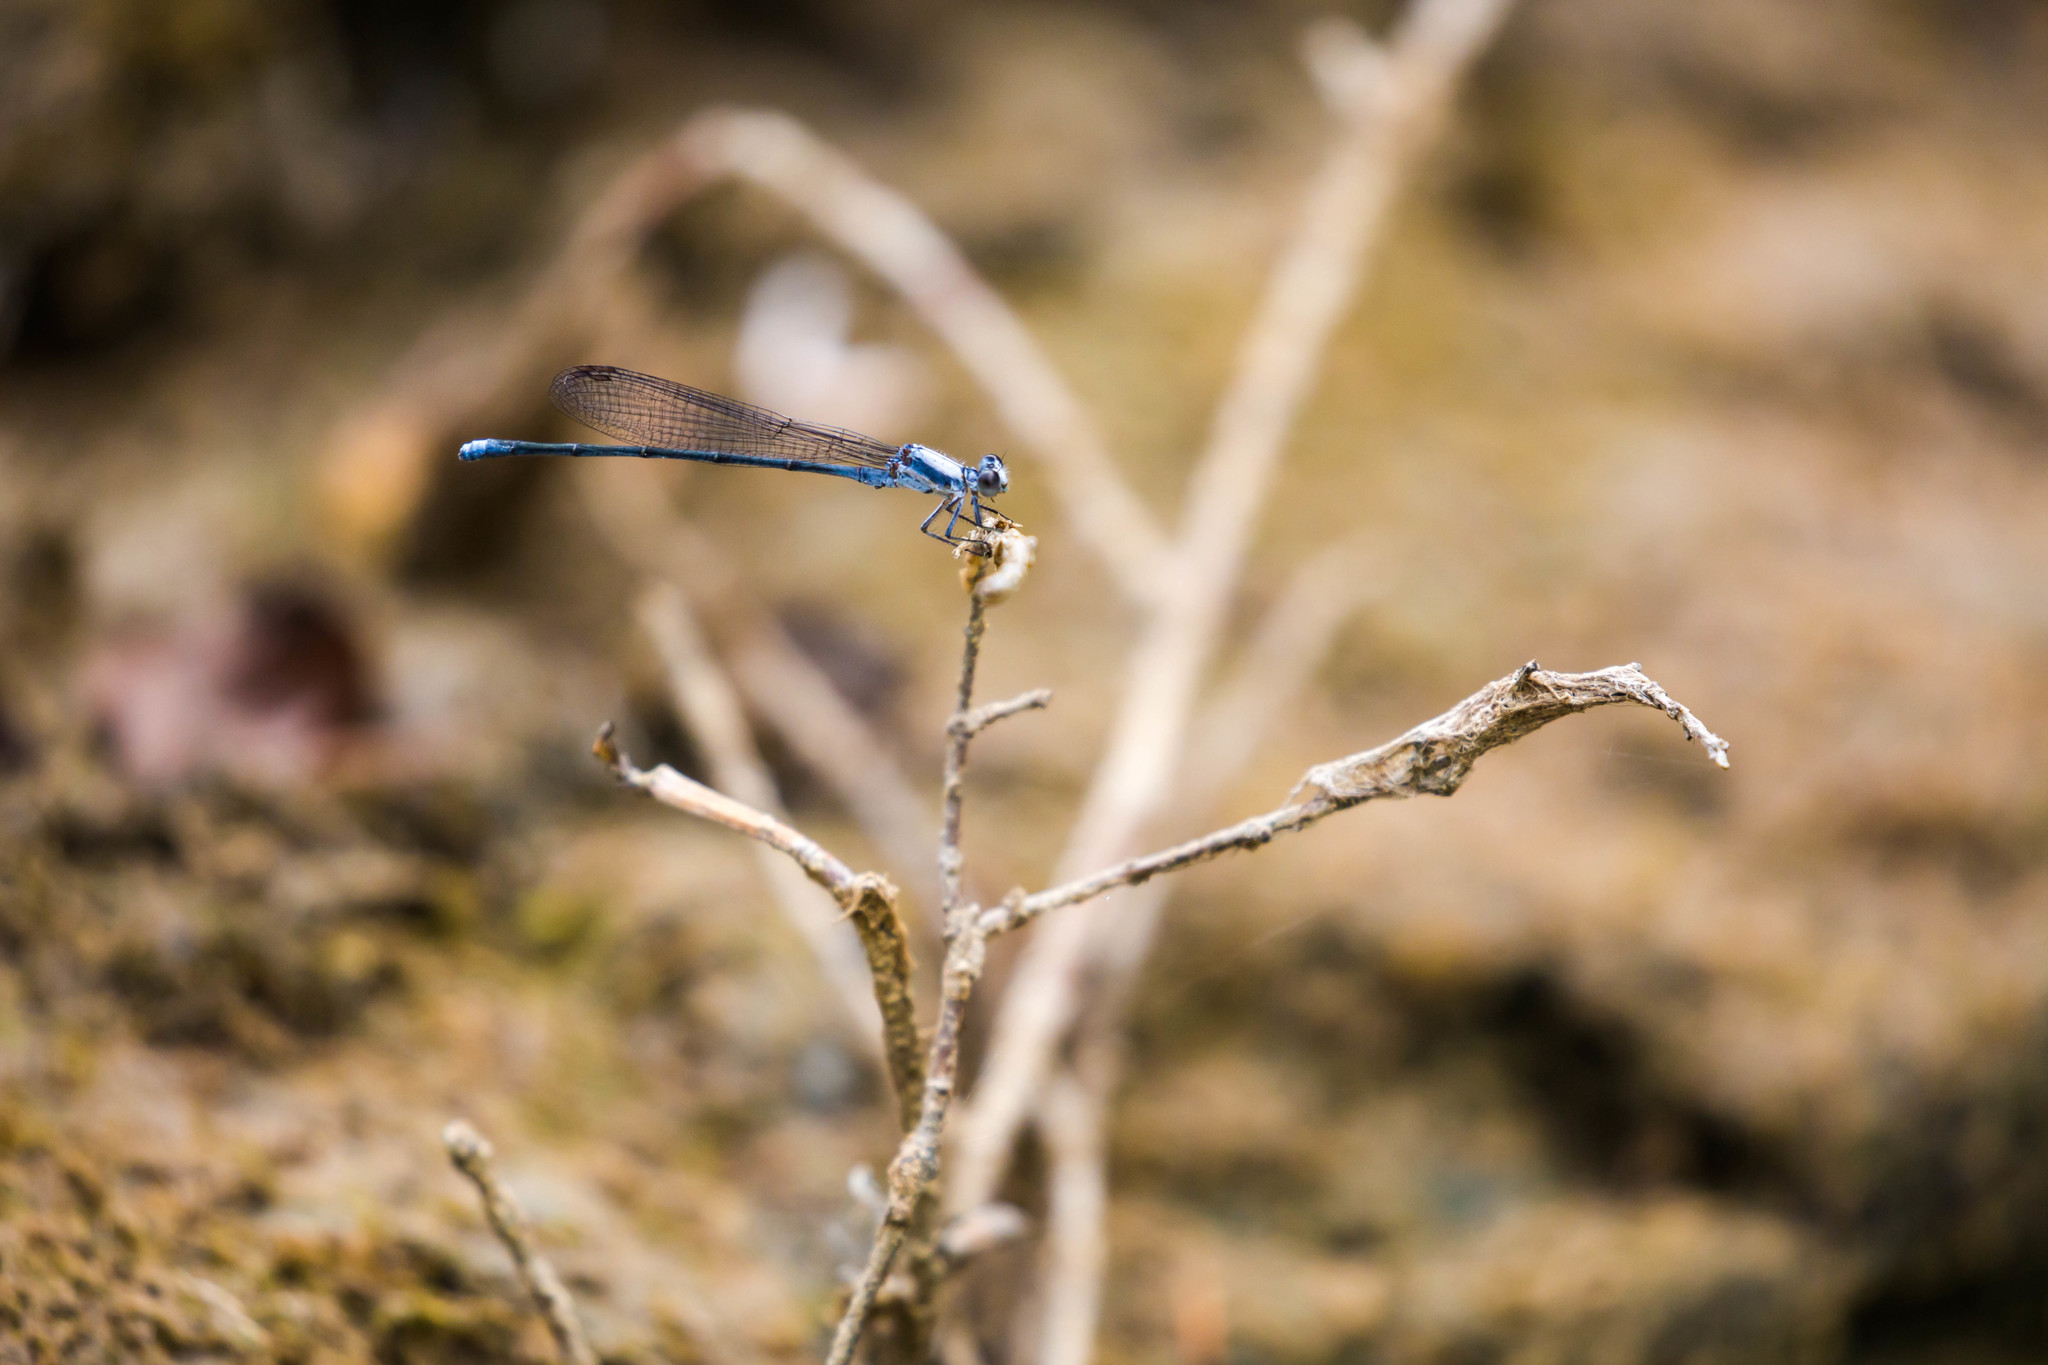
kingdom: Animalia
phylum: Arthropoda
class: Insecta
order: Odonata
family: Coenagrionidae
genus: Argia
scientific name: Argia moesta
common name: Powdered dancer
